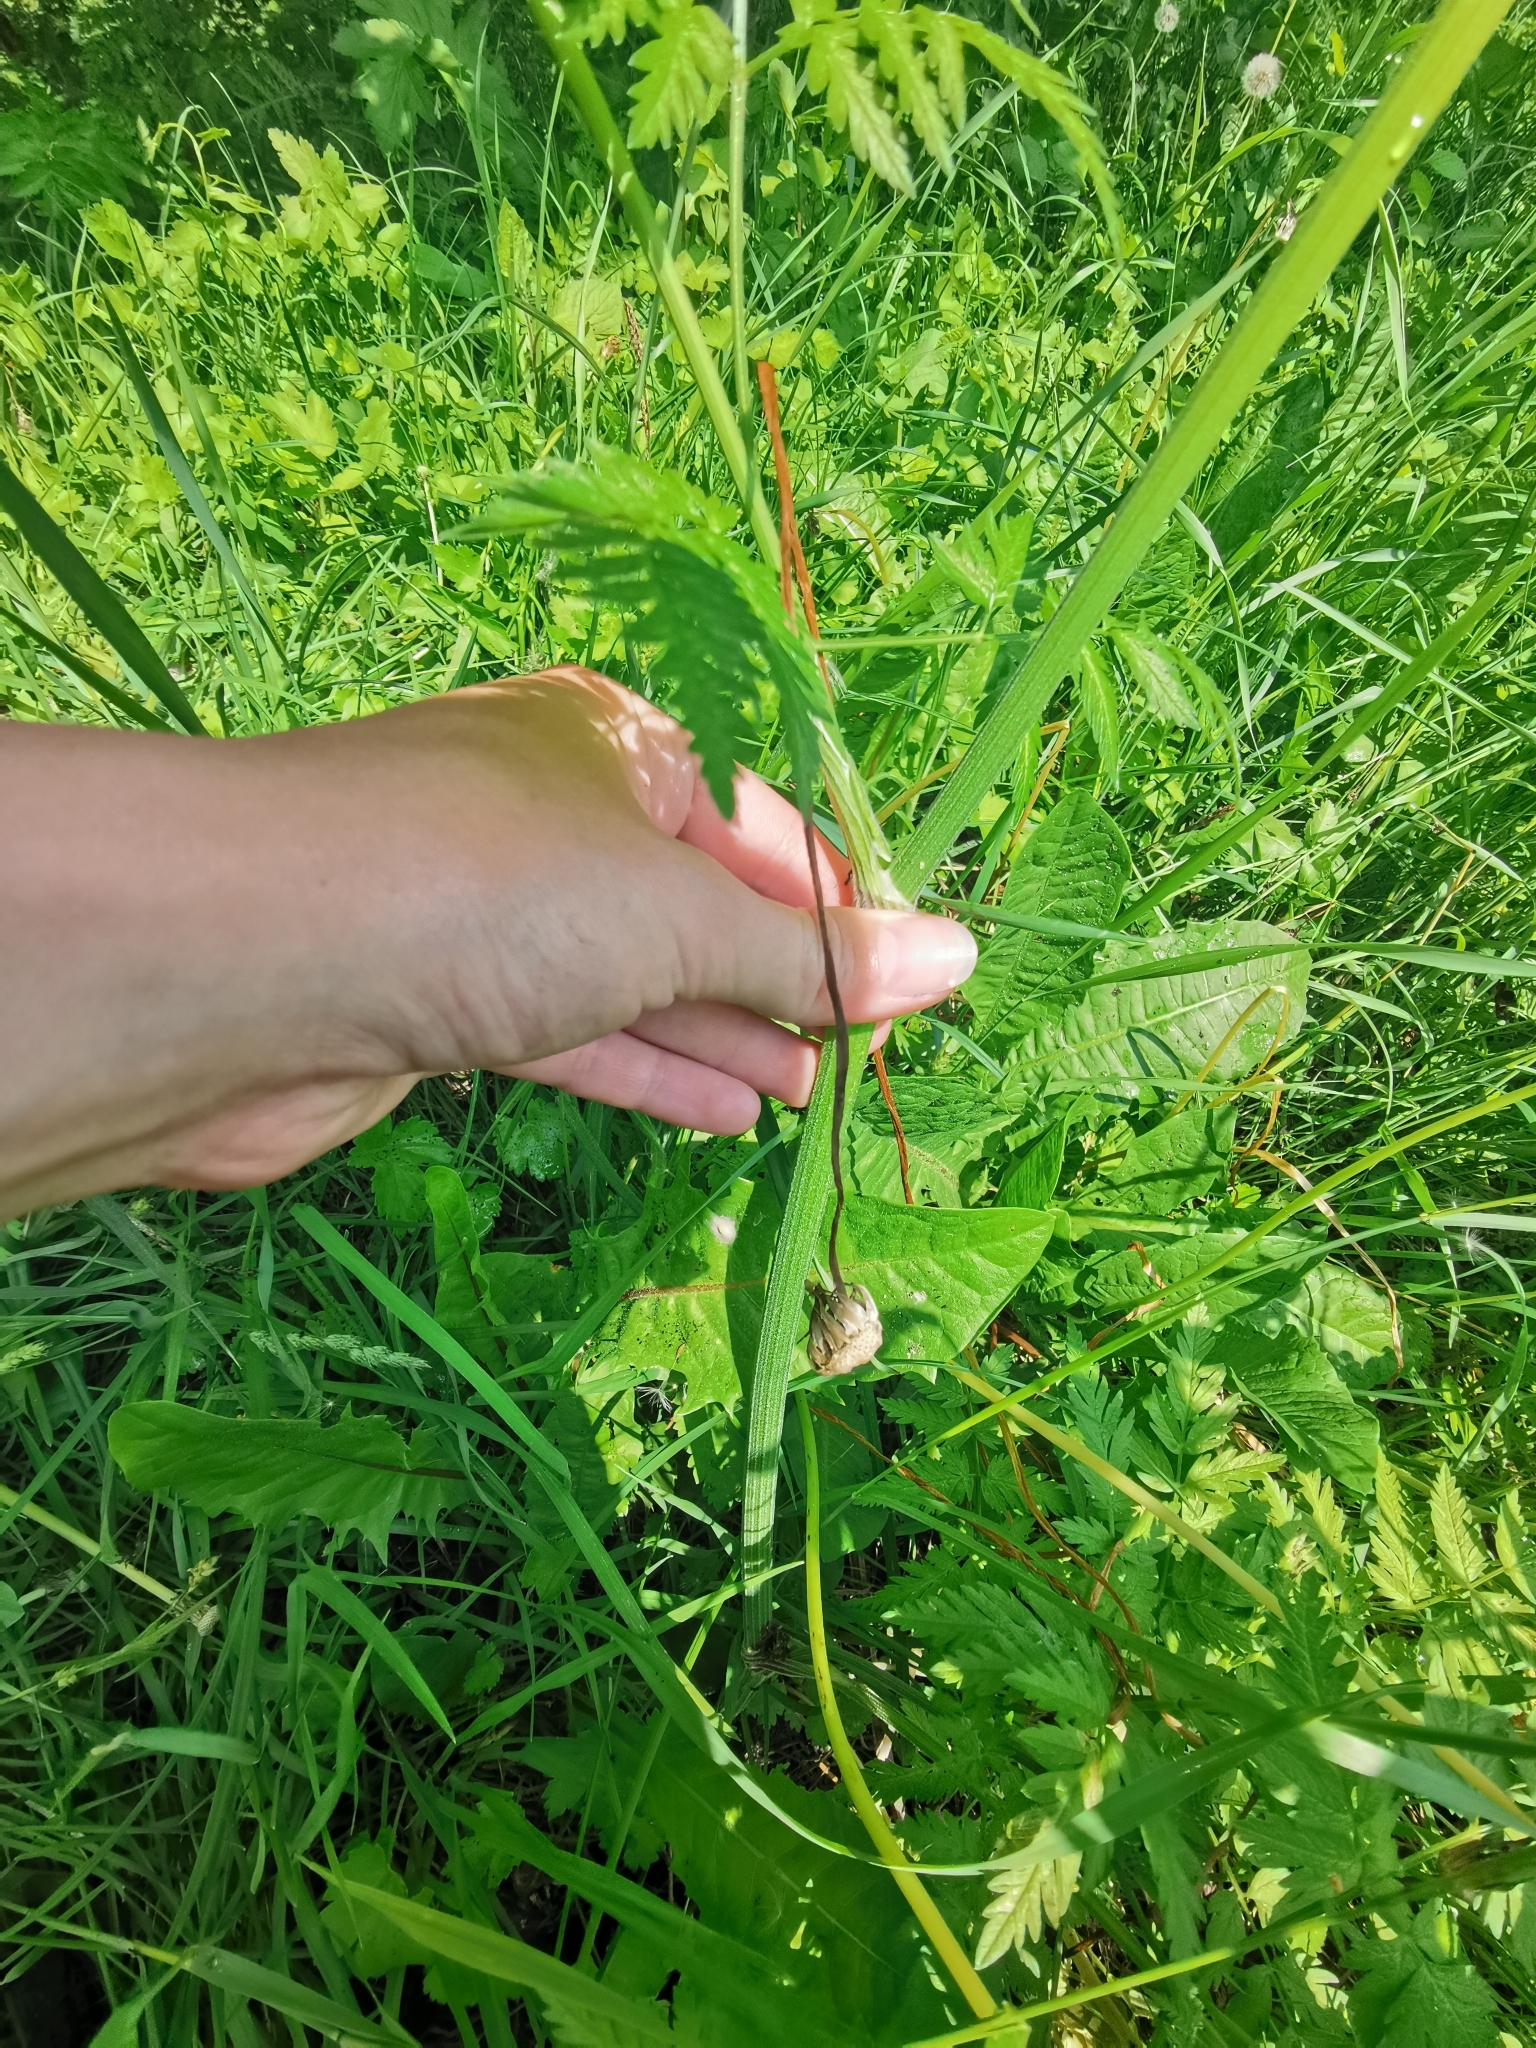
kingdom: Plantae
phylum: Tracheophyta
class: Magnoliopsida
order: Apiales
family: Apiaceae
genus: Anthriscus
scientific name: Anthriscus sylvestris
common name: Cow parsley
